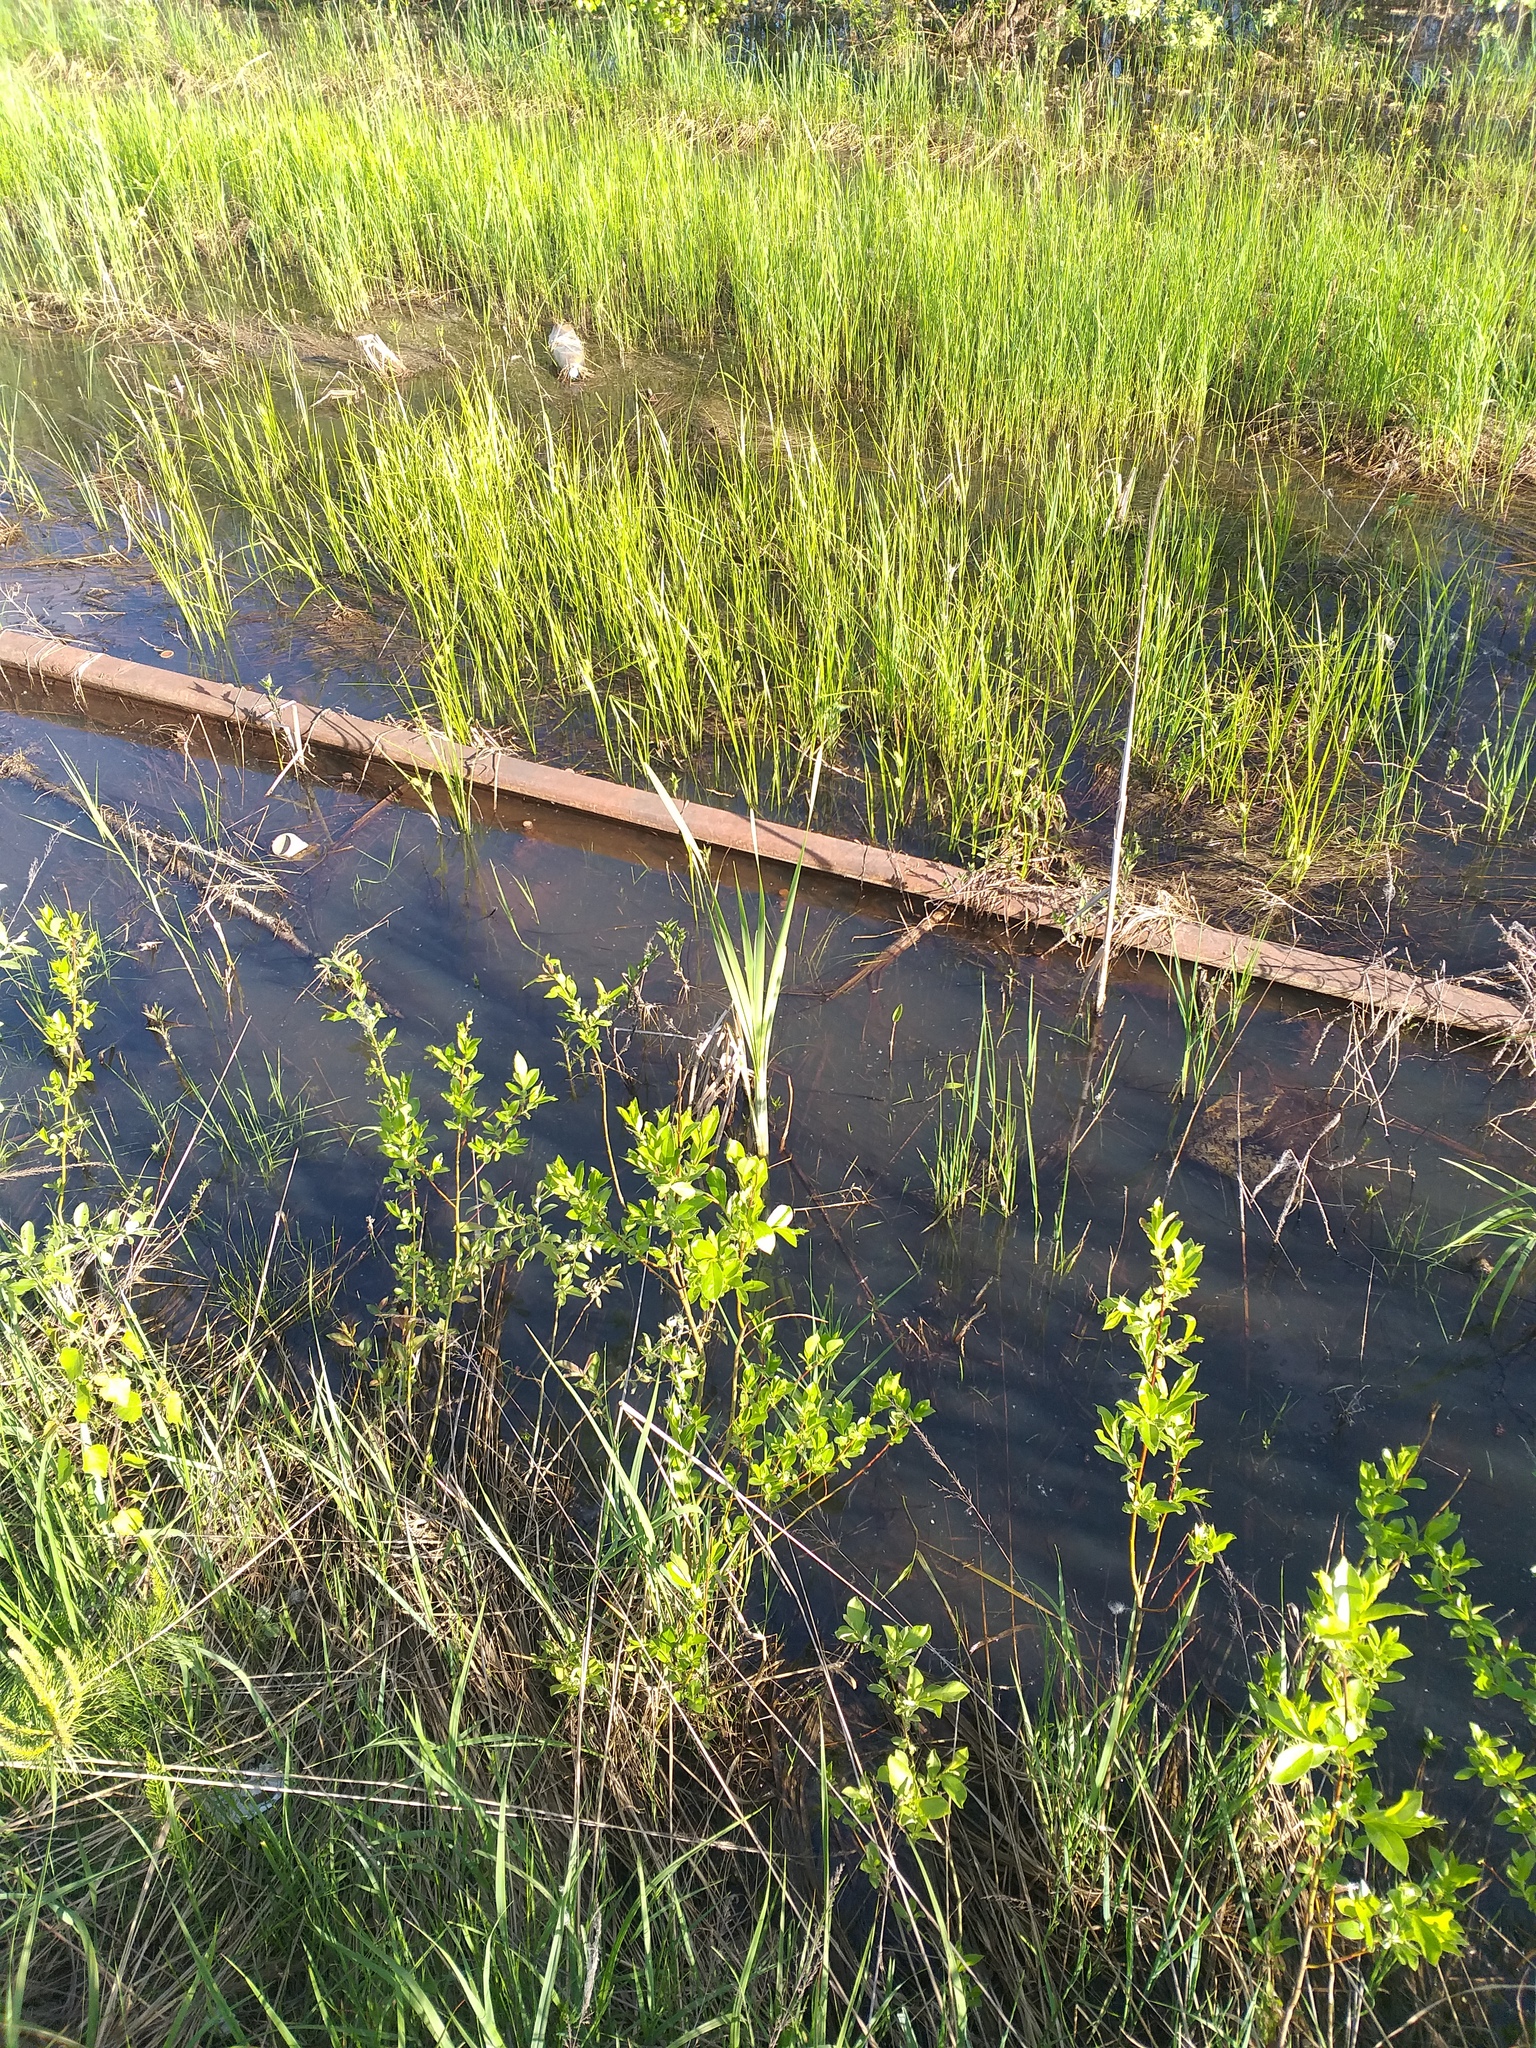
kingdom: Plantae
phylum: Tracheophyta
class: Liliopsida
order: Poales
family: Typhaceae
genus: Typha
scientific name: Typha latifolia
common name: Broadleaf cattail
